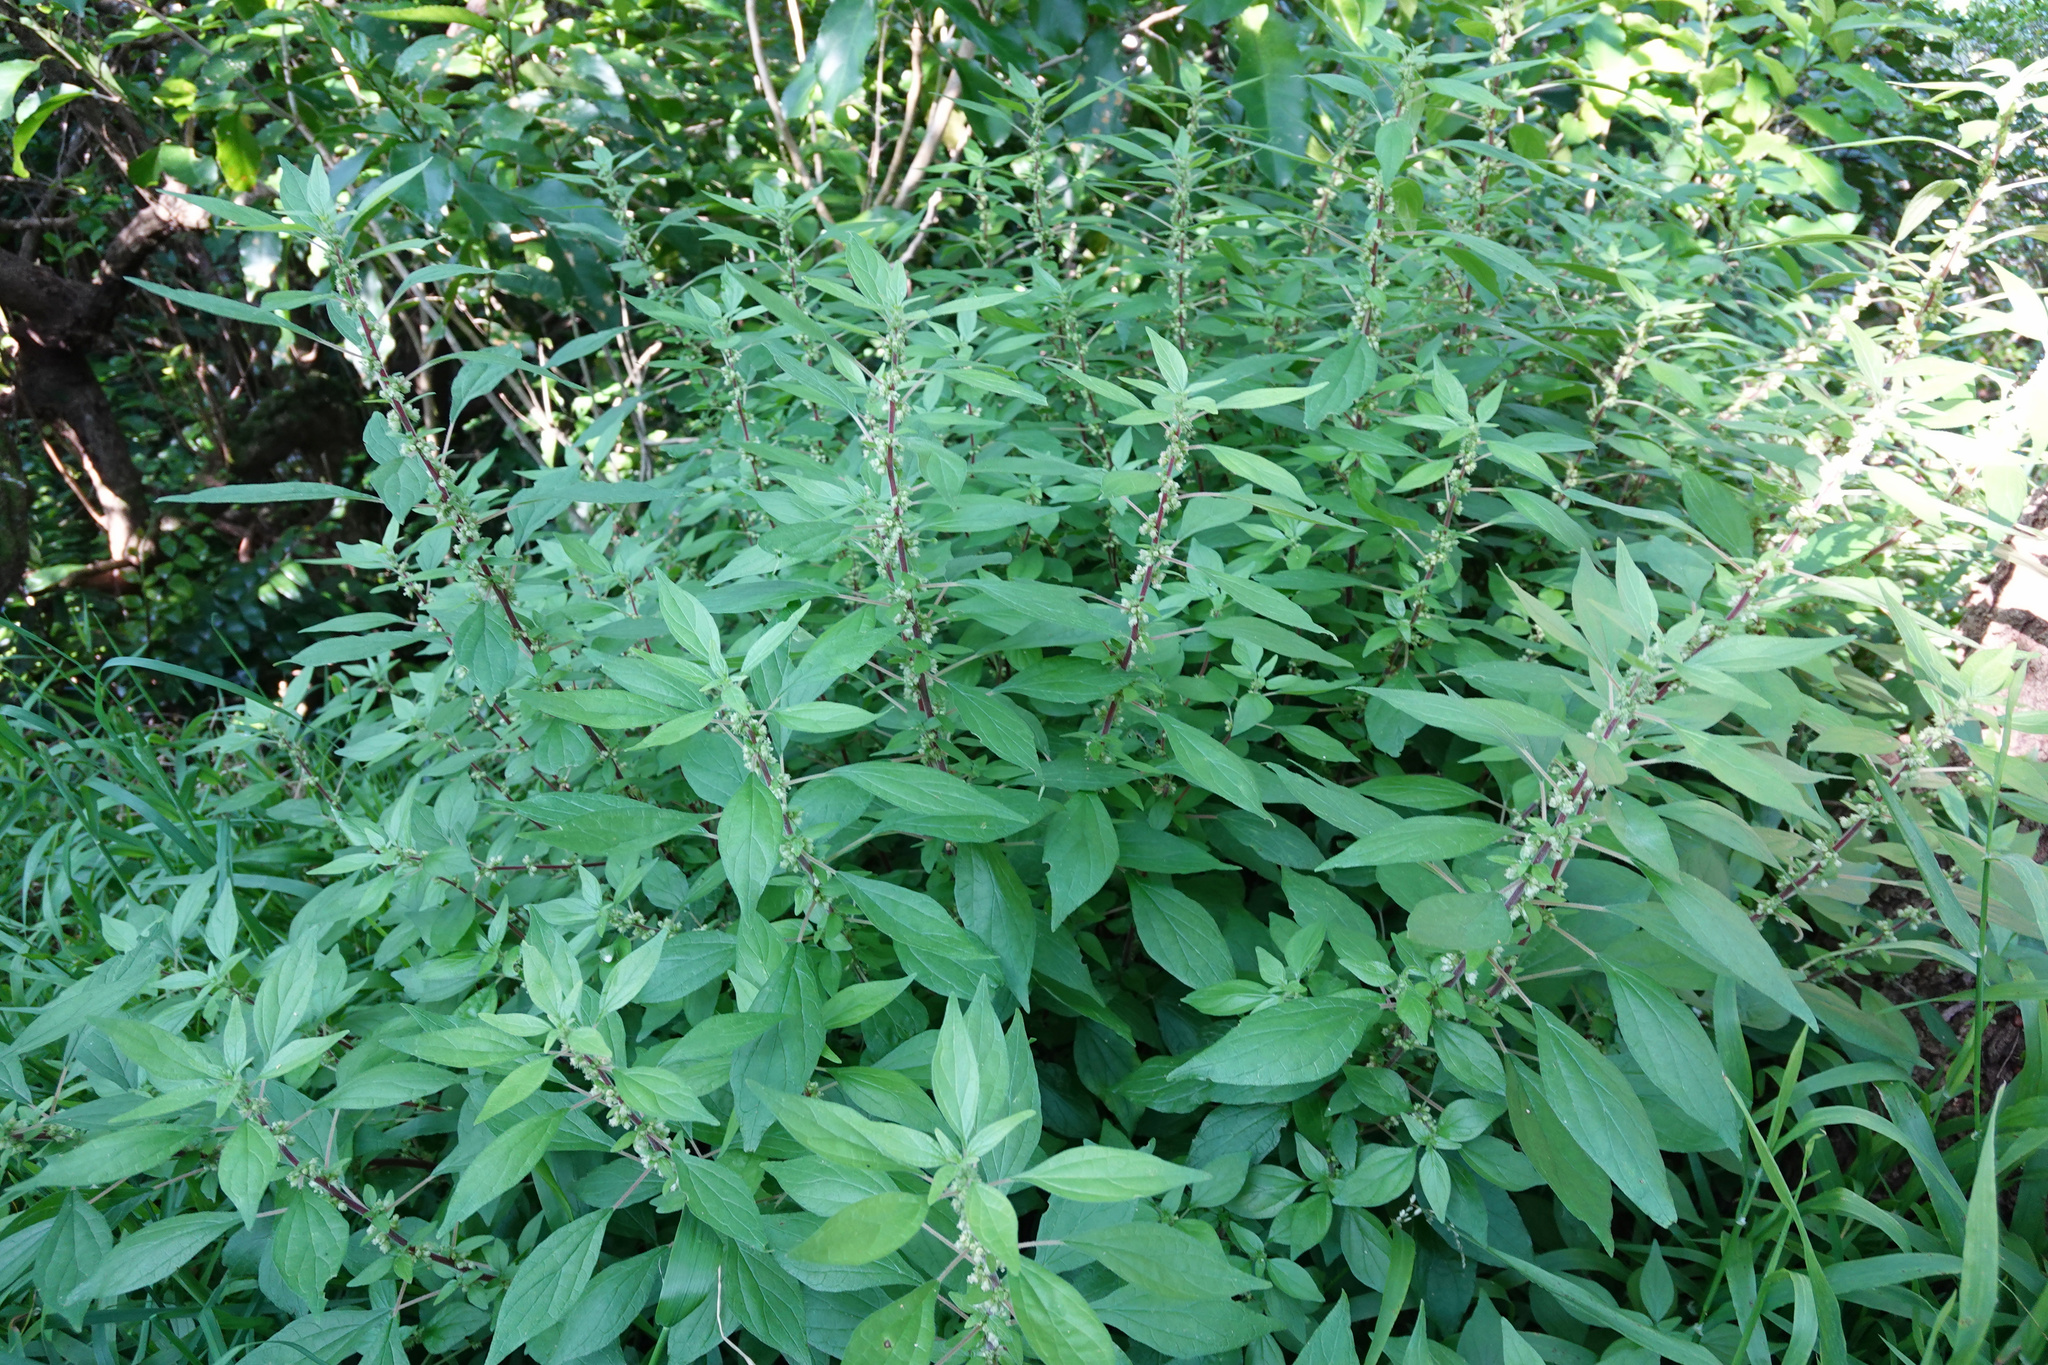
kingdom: Plantae
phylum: Tracheophyta
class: Magnoliopsida
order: Rosales
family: Urticaceae
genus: Parietaria
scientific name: Parietaria officinalis
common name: Eastern pellitory-of-the-wall
